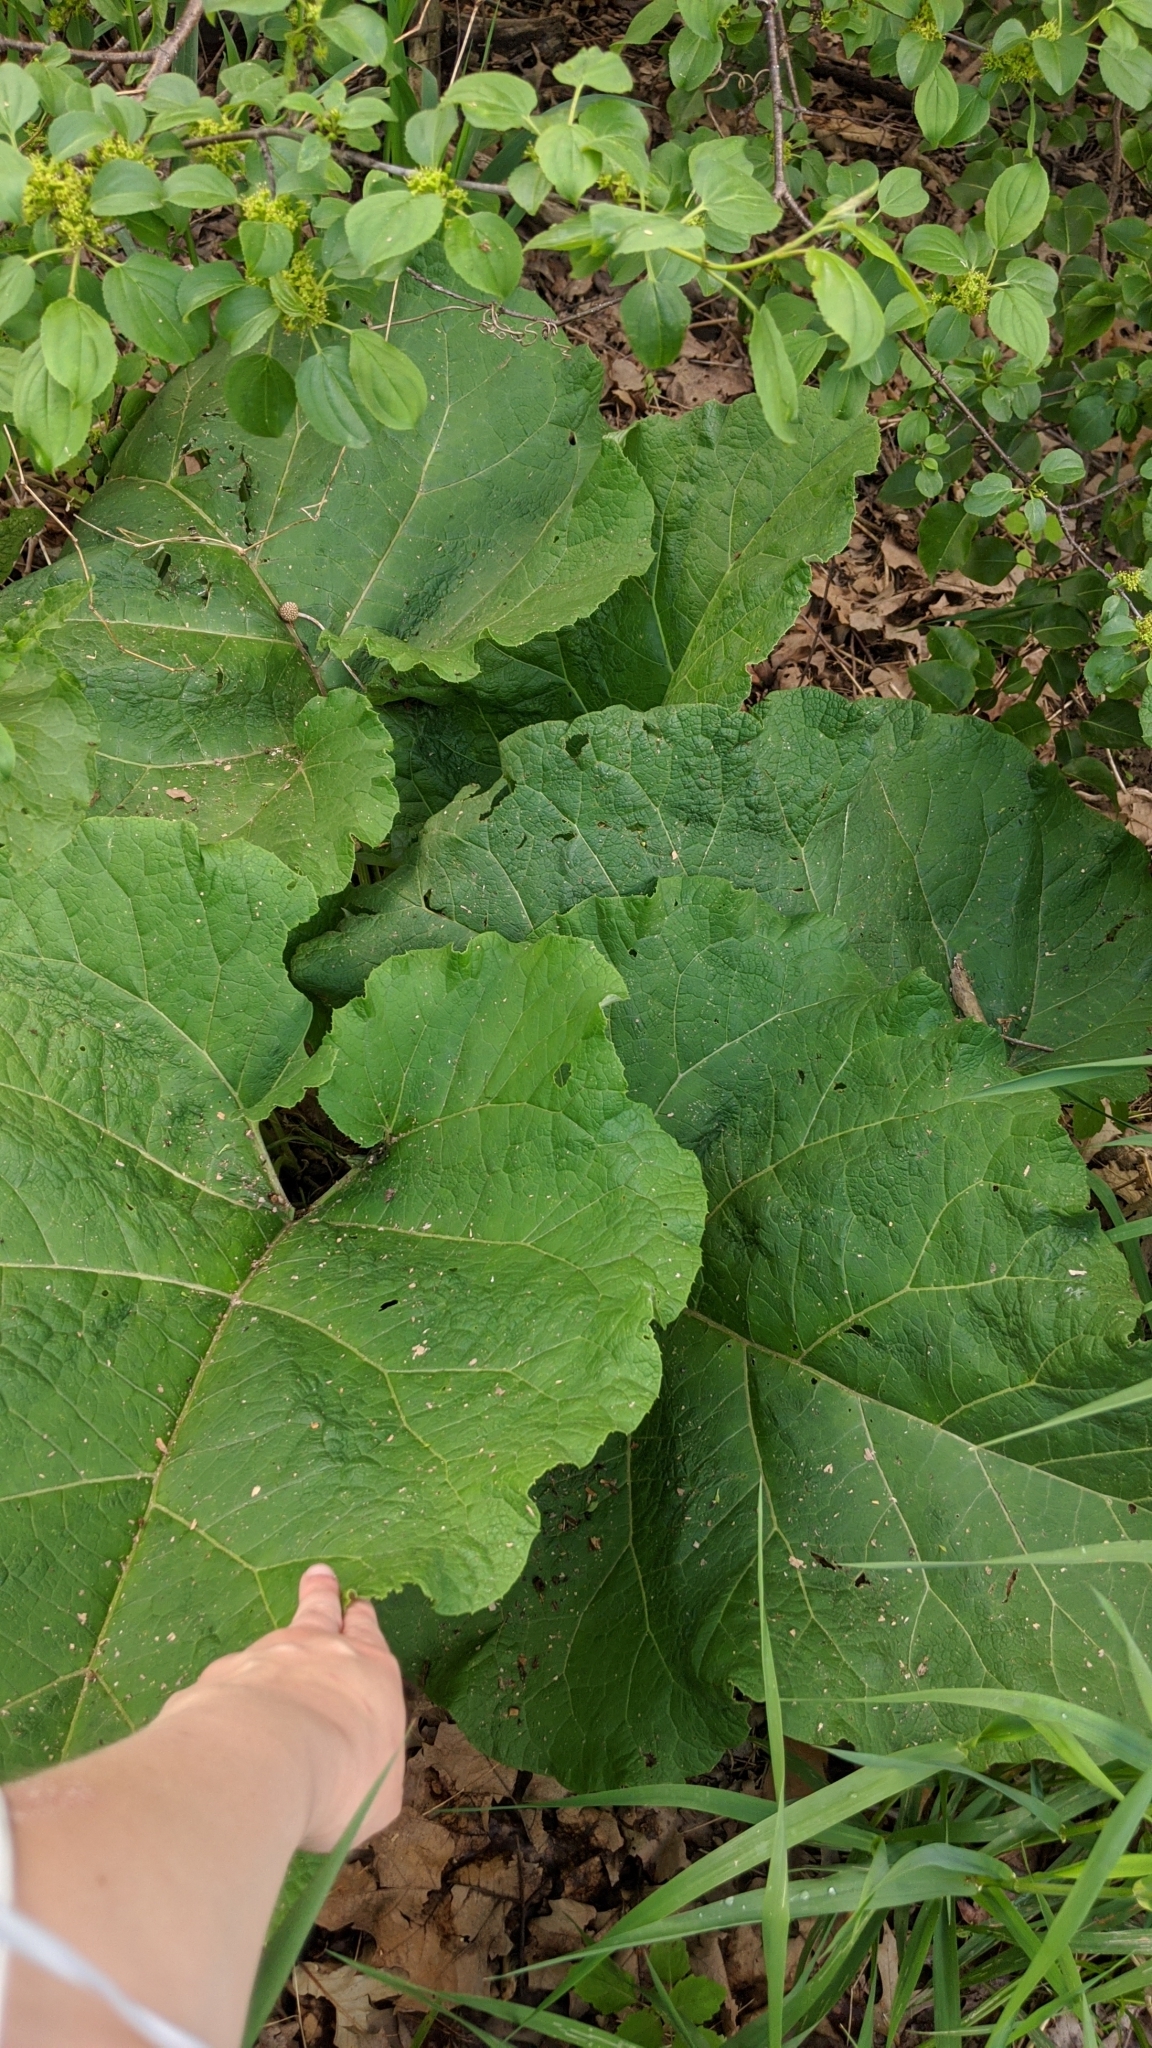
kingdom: Plantae
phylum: Tracheophyta
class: Magnoliopsida
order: Asterales
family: Asteraceae
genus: Arctium
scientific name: Arctium
